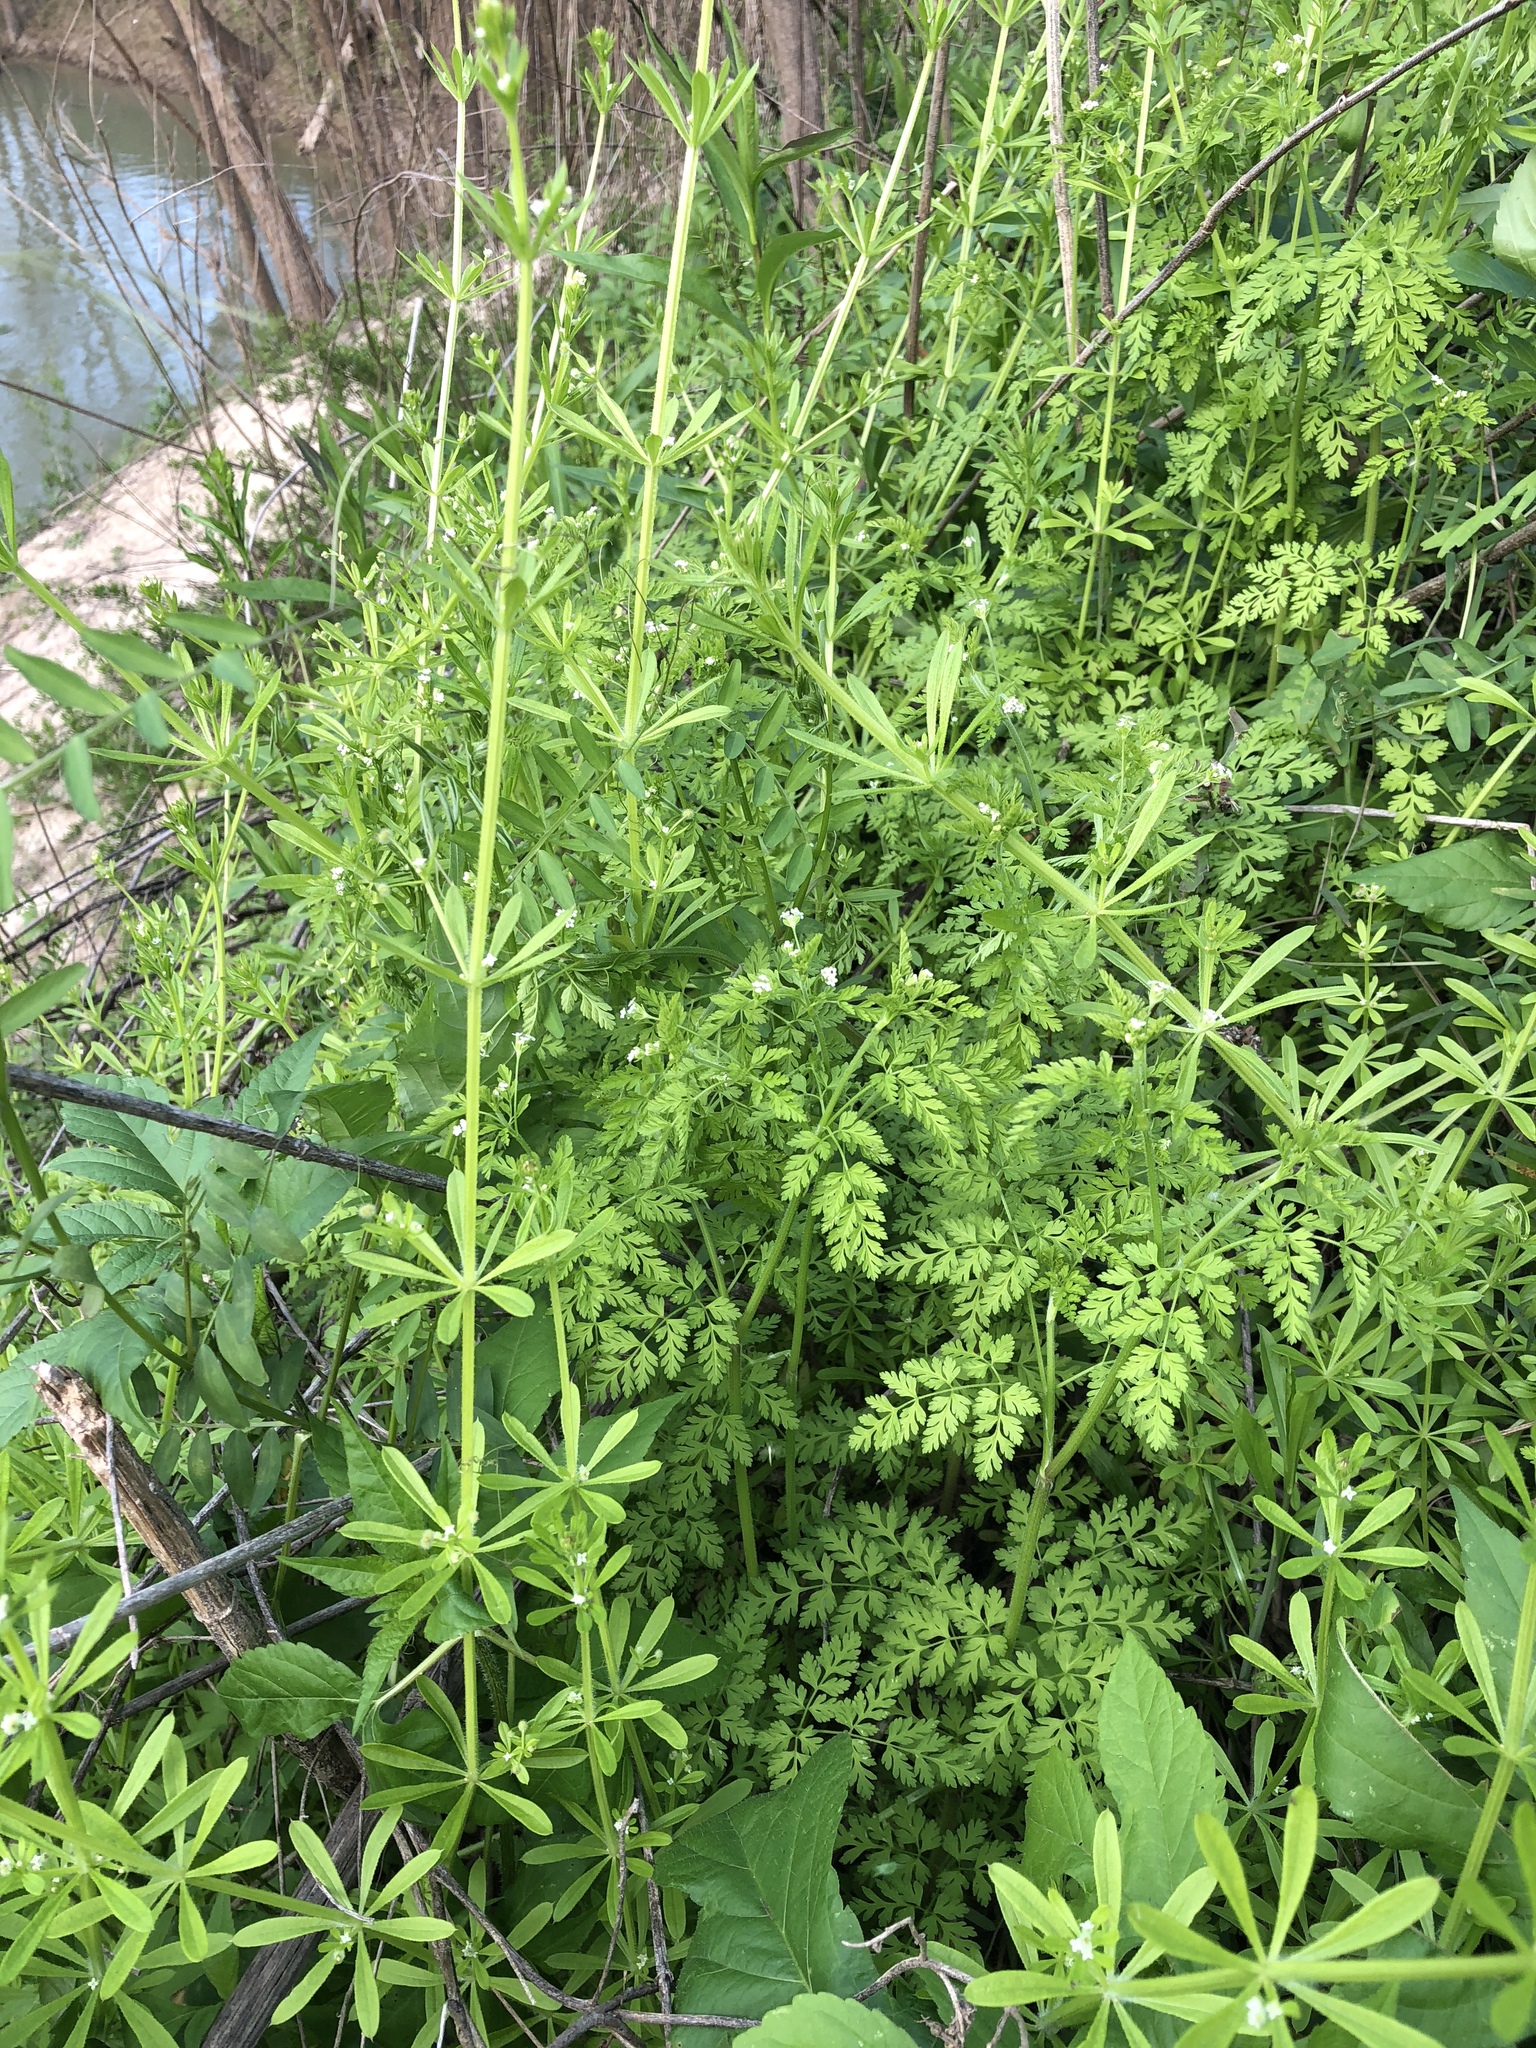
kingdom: Plantae
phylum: Tracheophyta
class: Magnoliopsida
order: Gentianales
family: Rubiaceae
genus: Galium
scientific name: Galium aparine
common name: Cleavers
